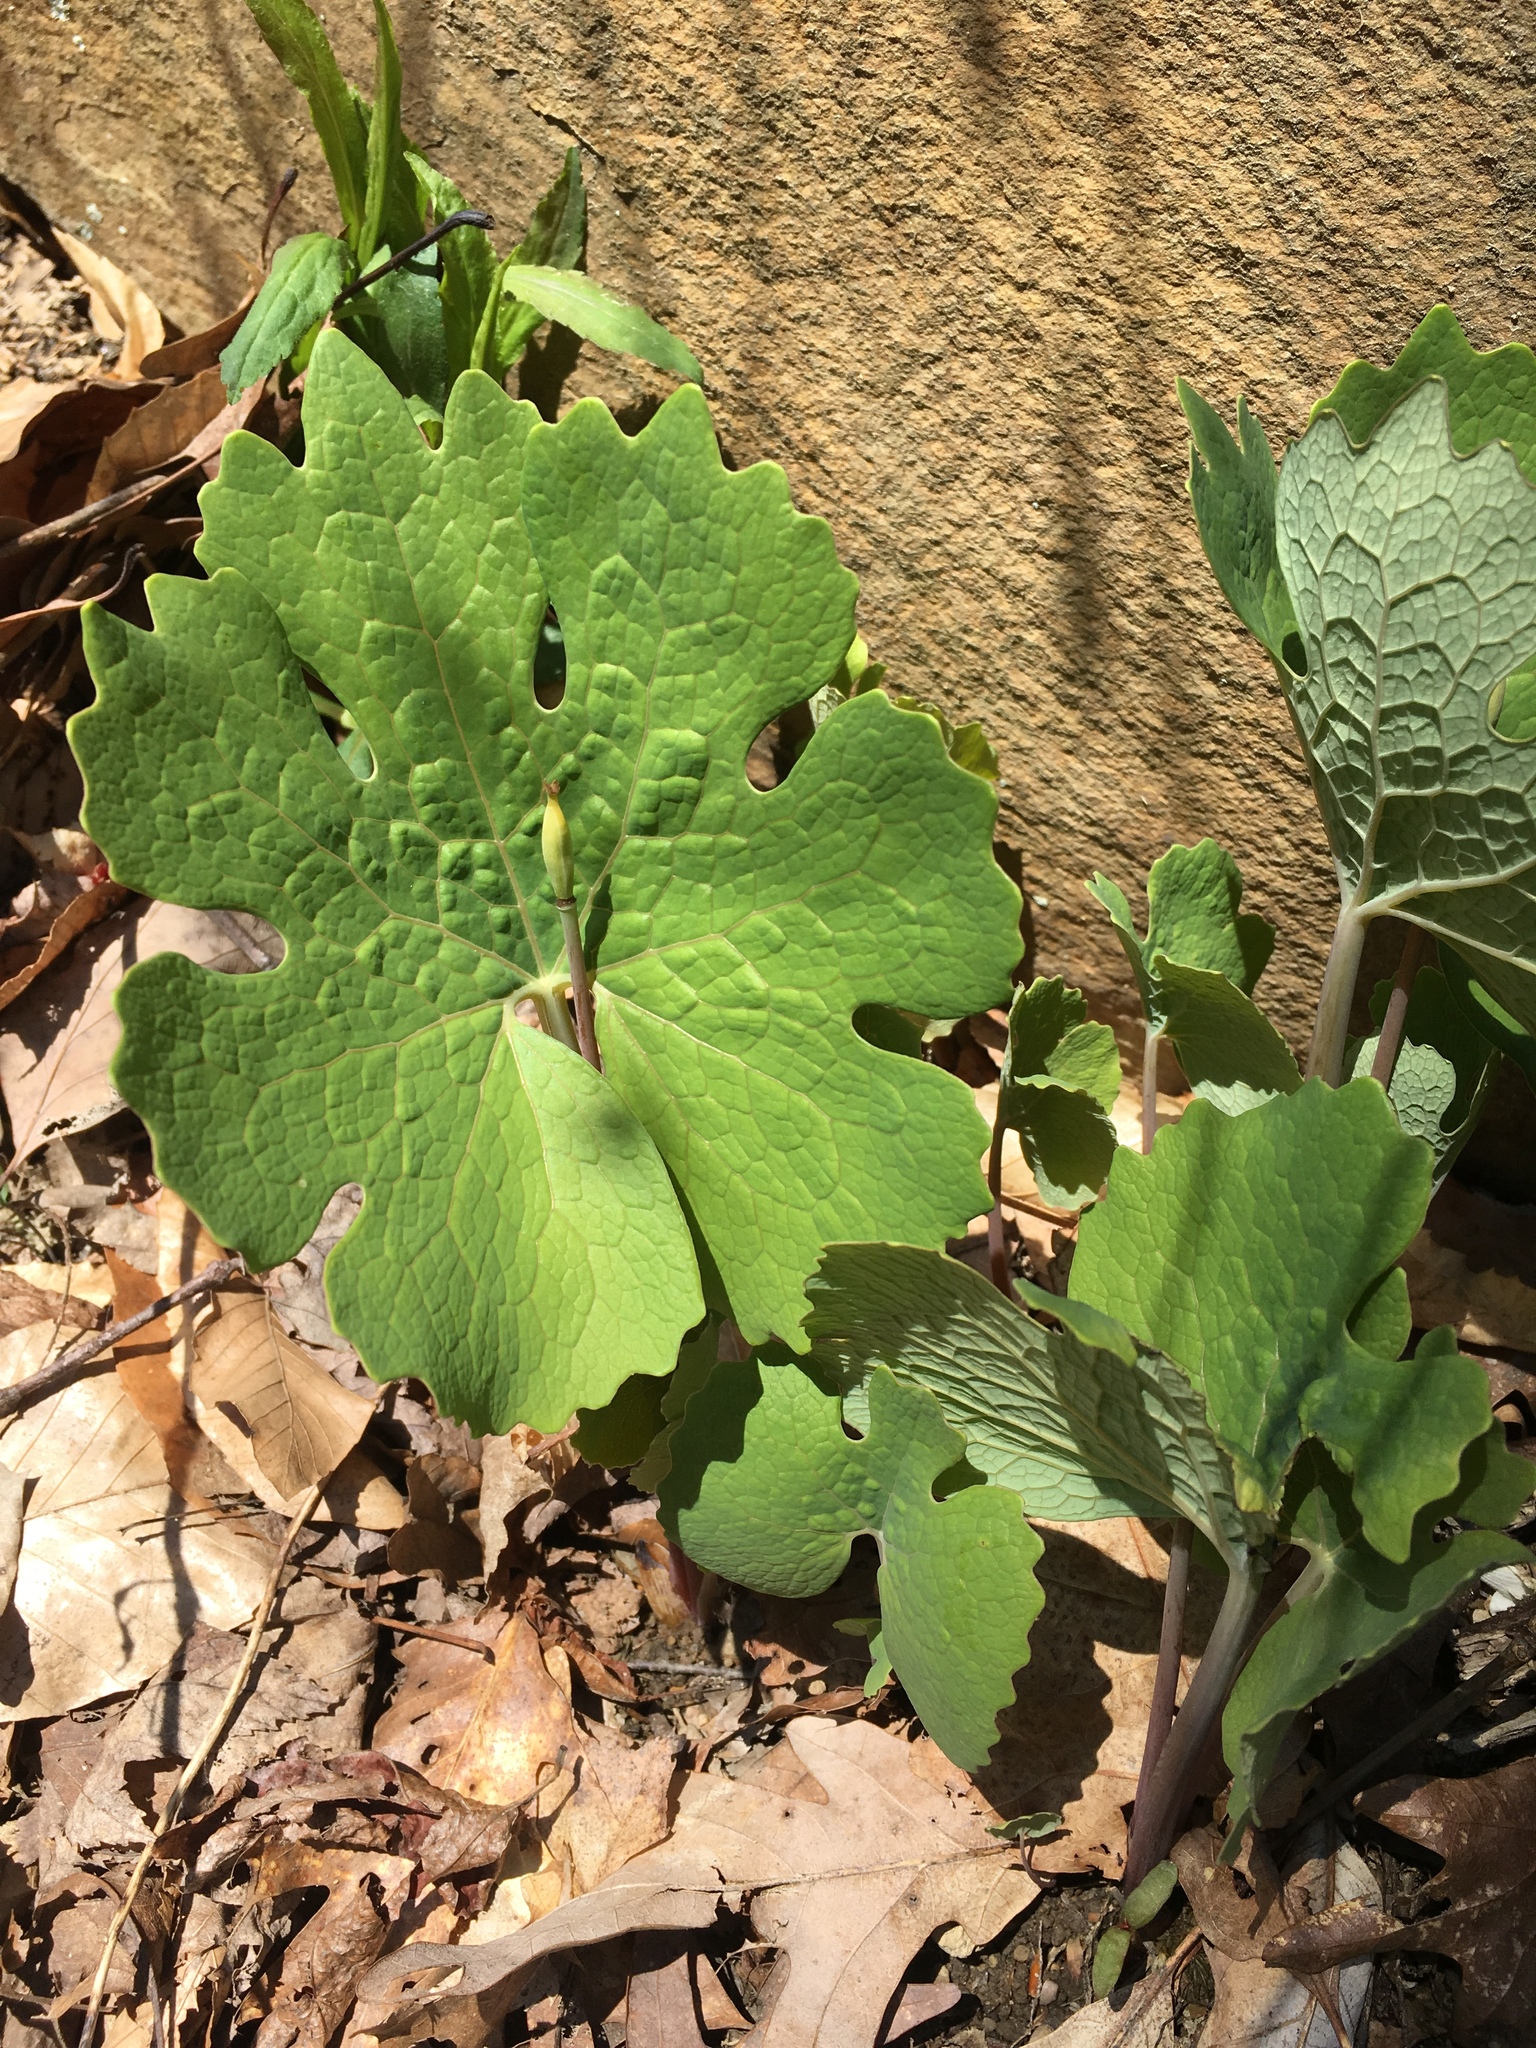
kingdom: Plantae
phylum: Tracheophyta
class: Magnoliopsida
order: Ranunculales
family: Papaveraceae
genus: Sanguinaria
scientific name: Sanguinaria canadensis
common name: Bloodroot
